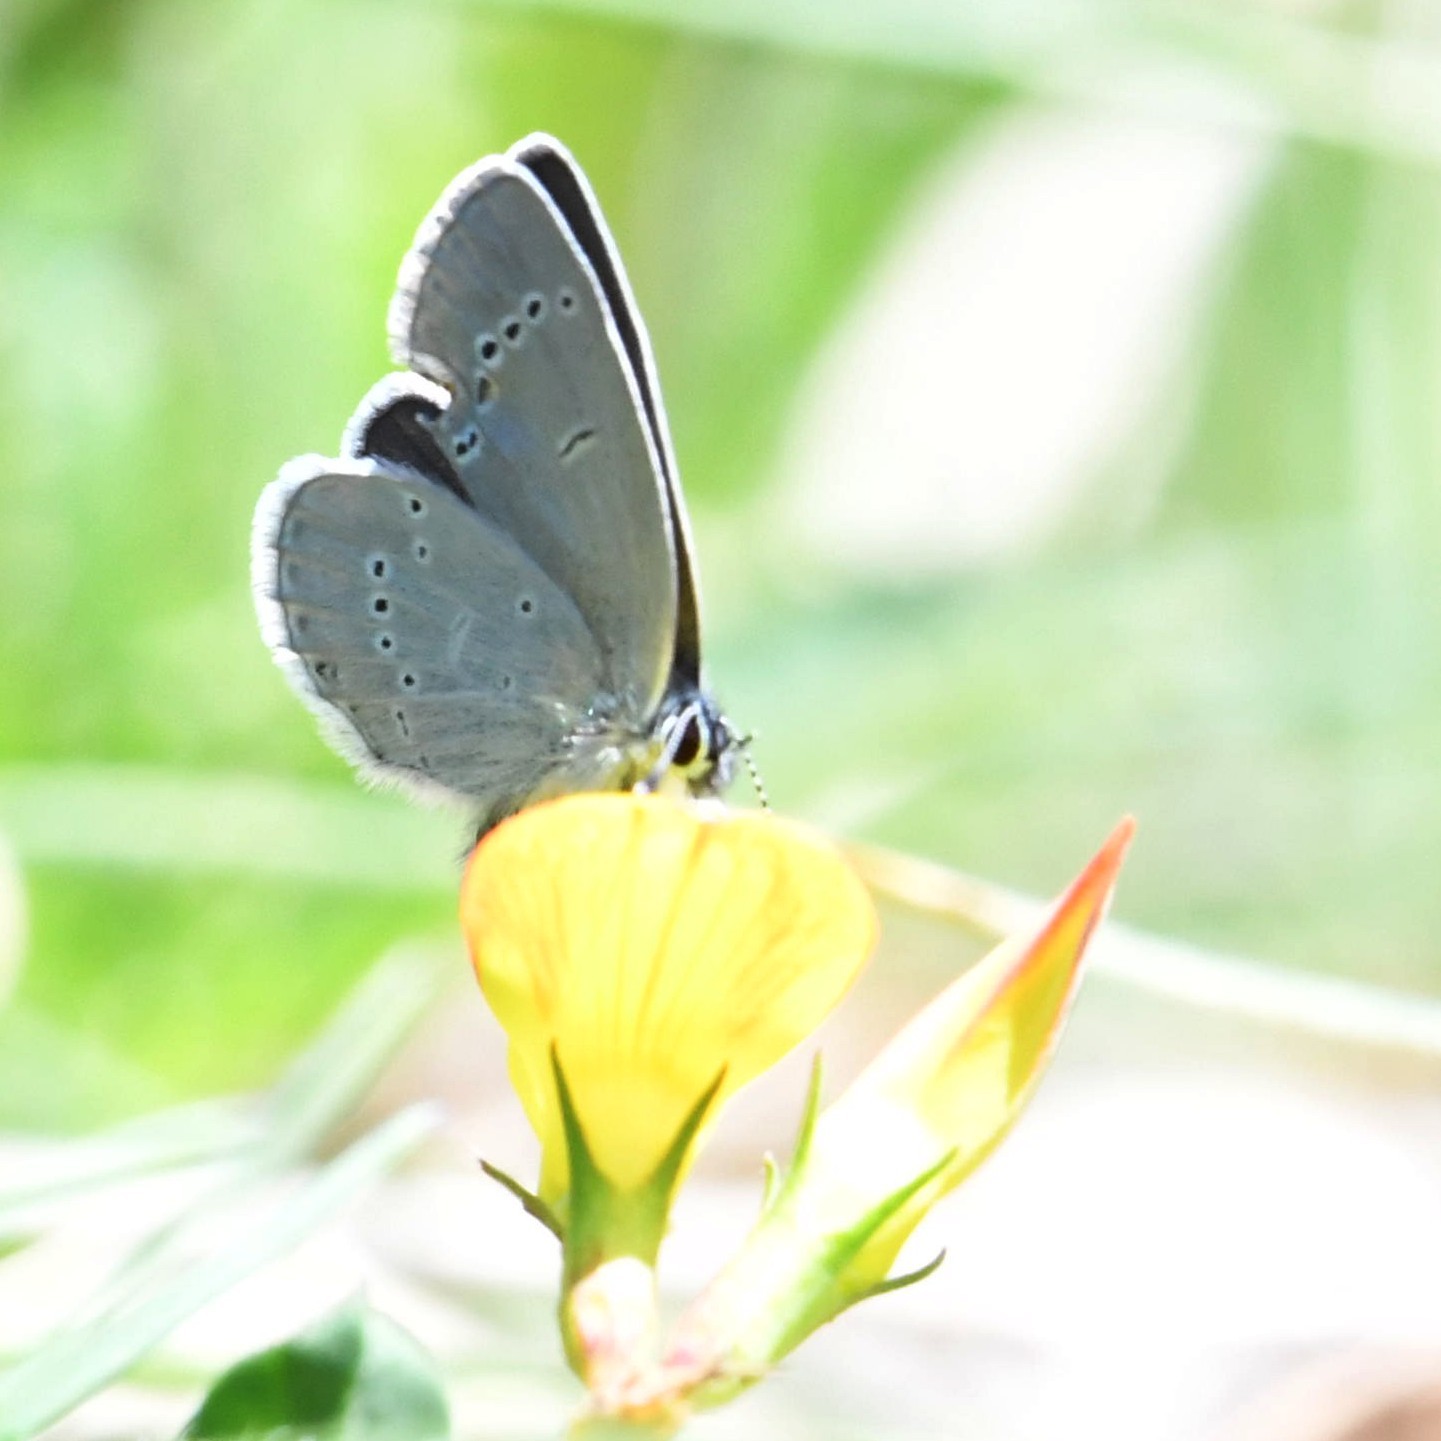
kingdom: Animalia
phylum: Arthropoda
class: Insecta
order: Lepidoptera
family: Lycaenidae
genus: Cupido
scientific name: Cupido minimus
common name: Small blue
